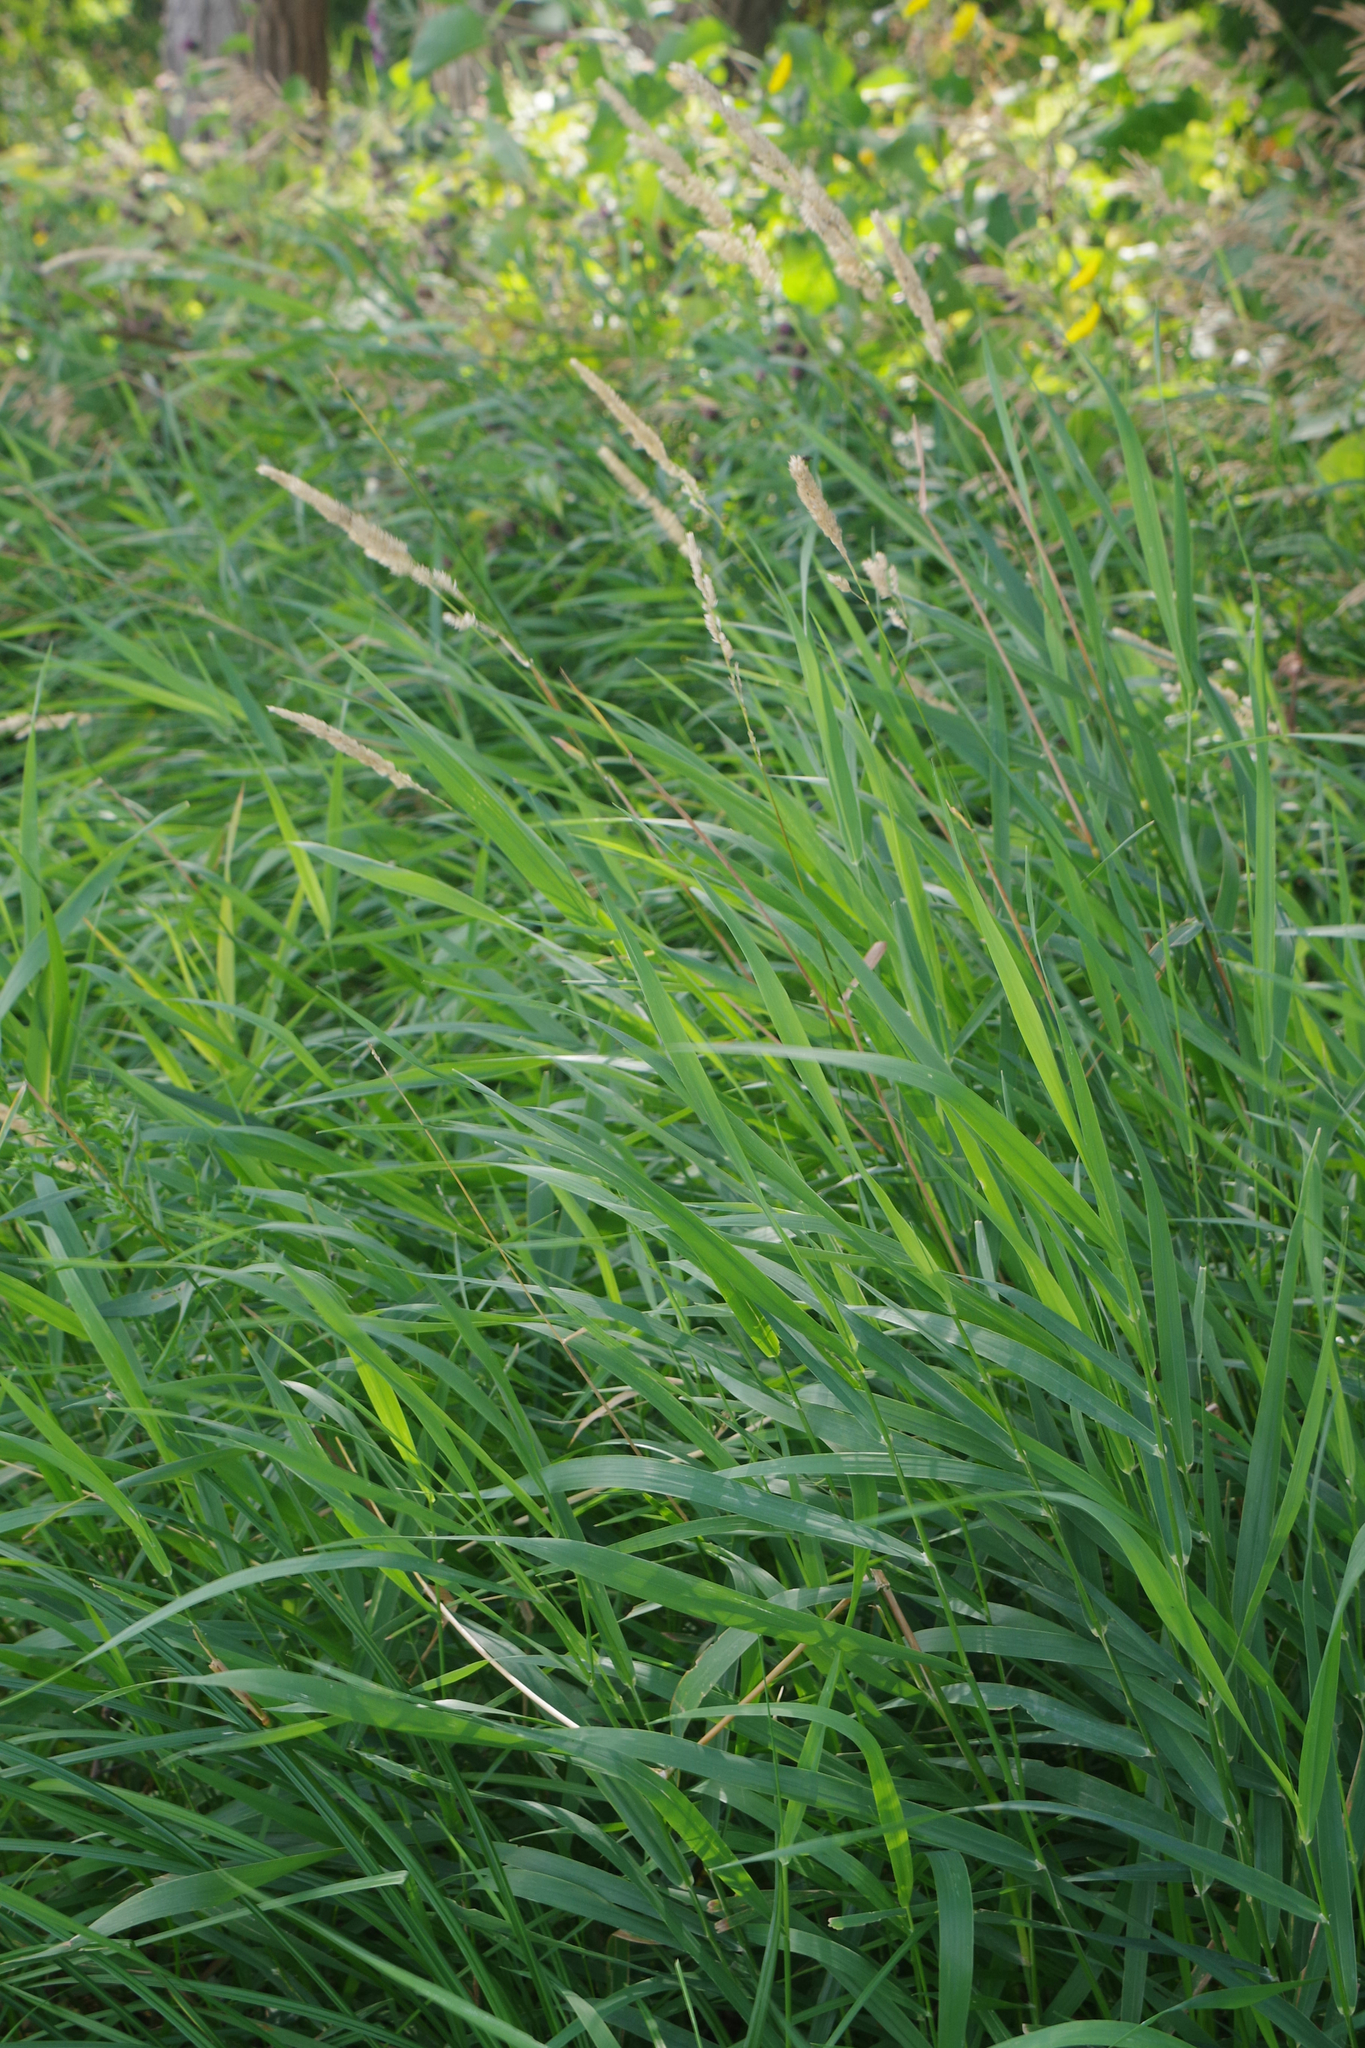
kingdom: Plantae
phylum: Tracheophyta
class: Liliopsida
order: Poales
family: Poaceae
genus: Phalaris
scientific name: Phalaris arundinacea
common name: Reed canary-grass
